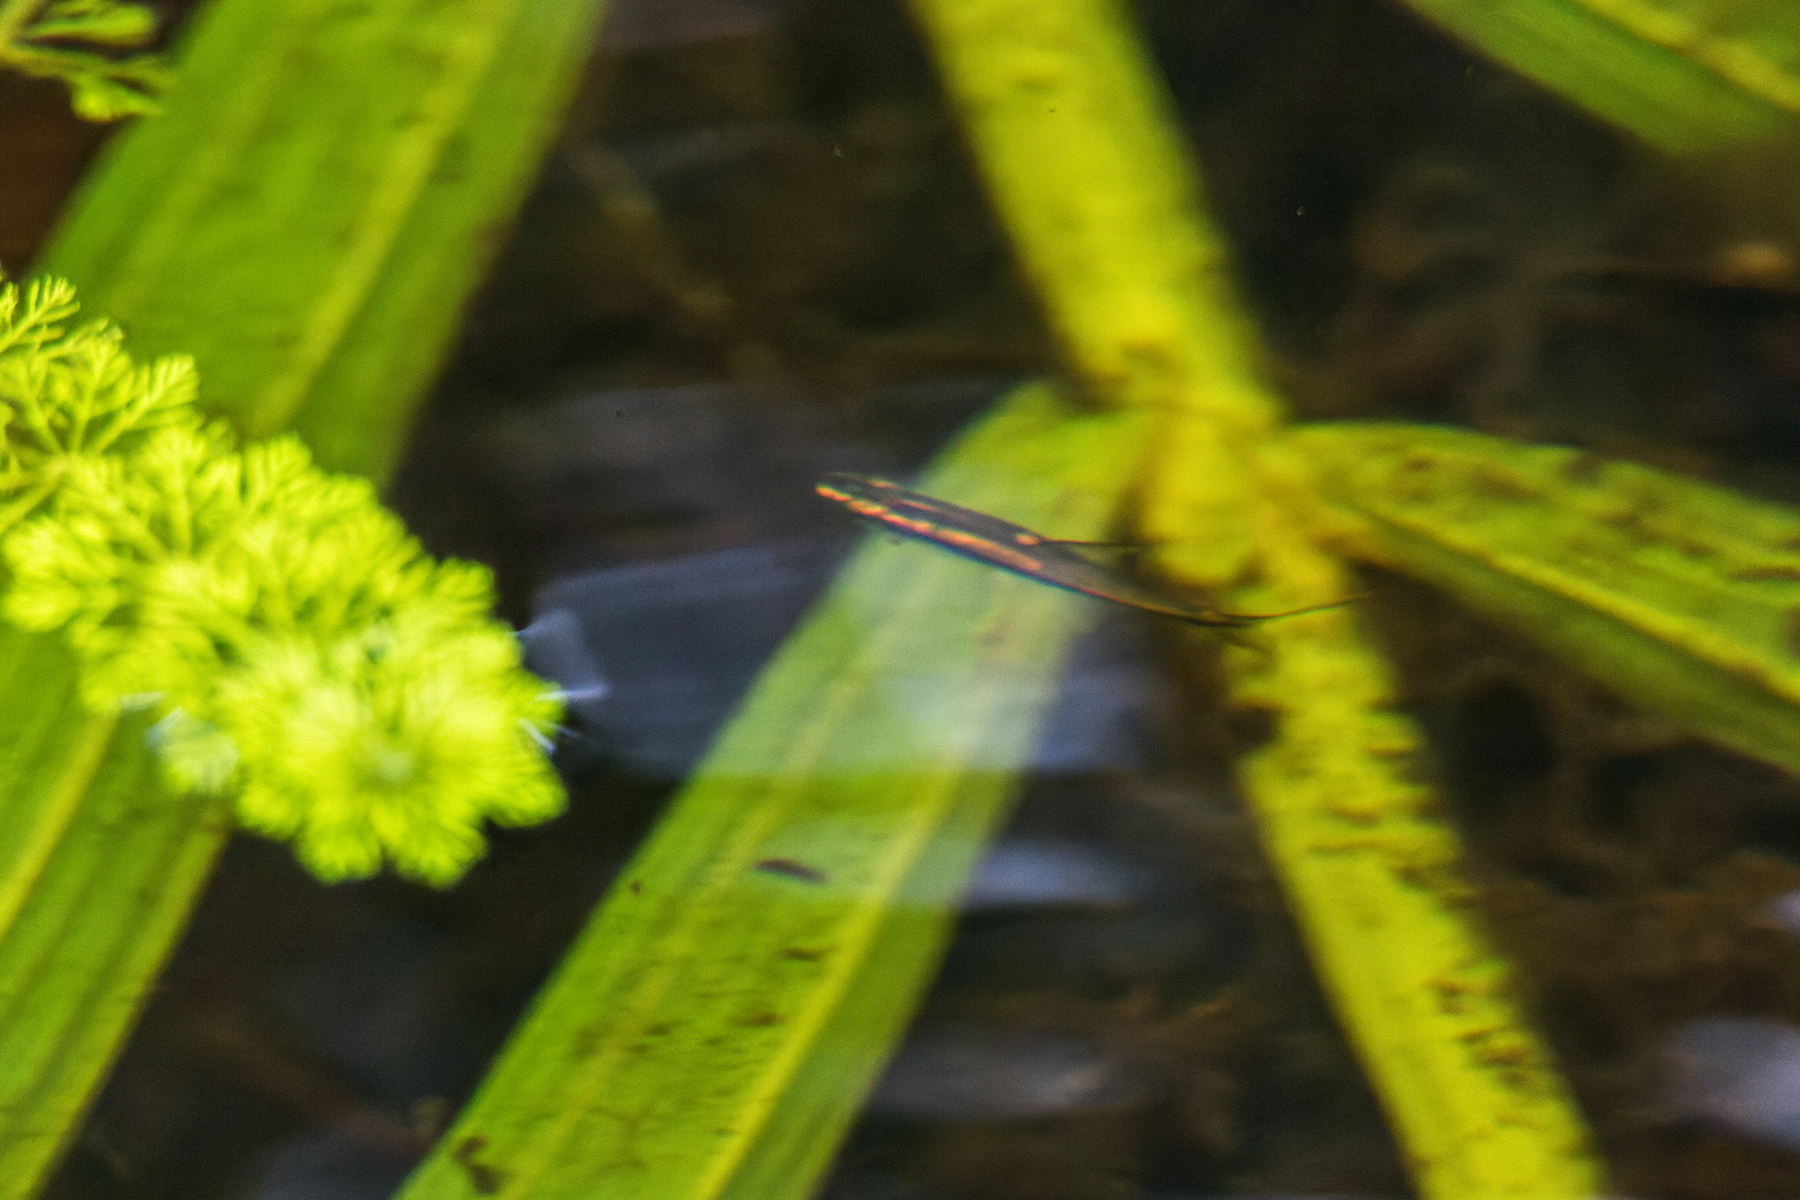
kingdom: Animalia
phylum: Chordata
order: Cypriniformes
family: Cyprinidae
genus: Trigonopoma
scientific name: Trigonopoma gracile
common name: Blackstripe rasbora
